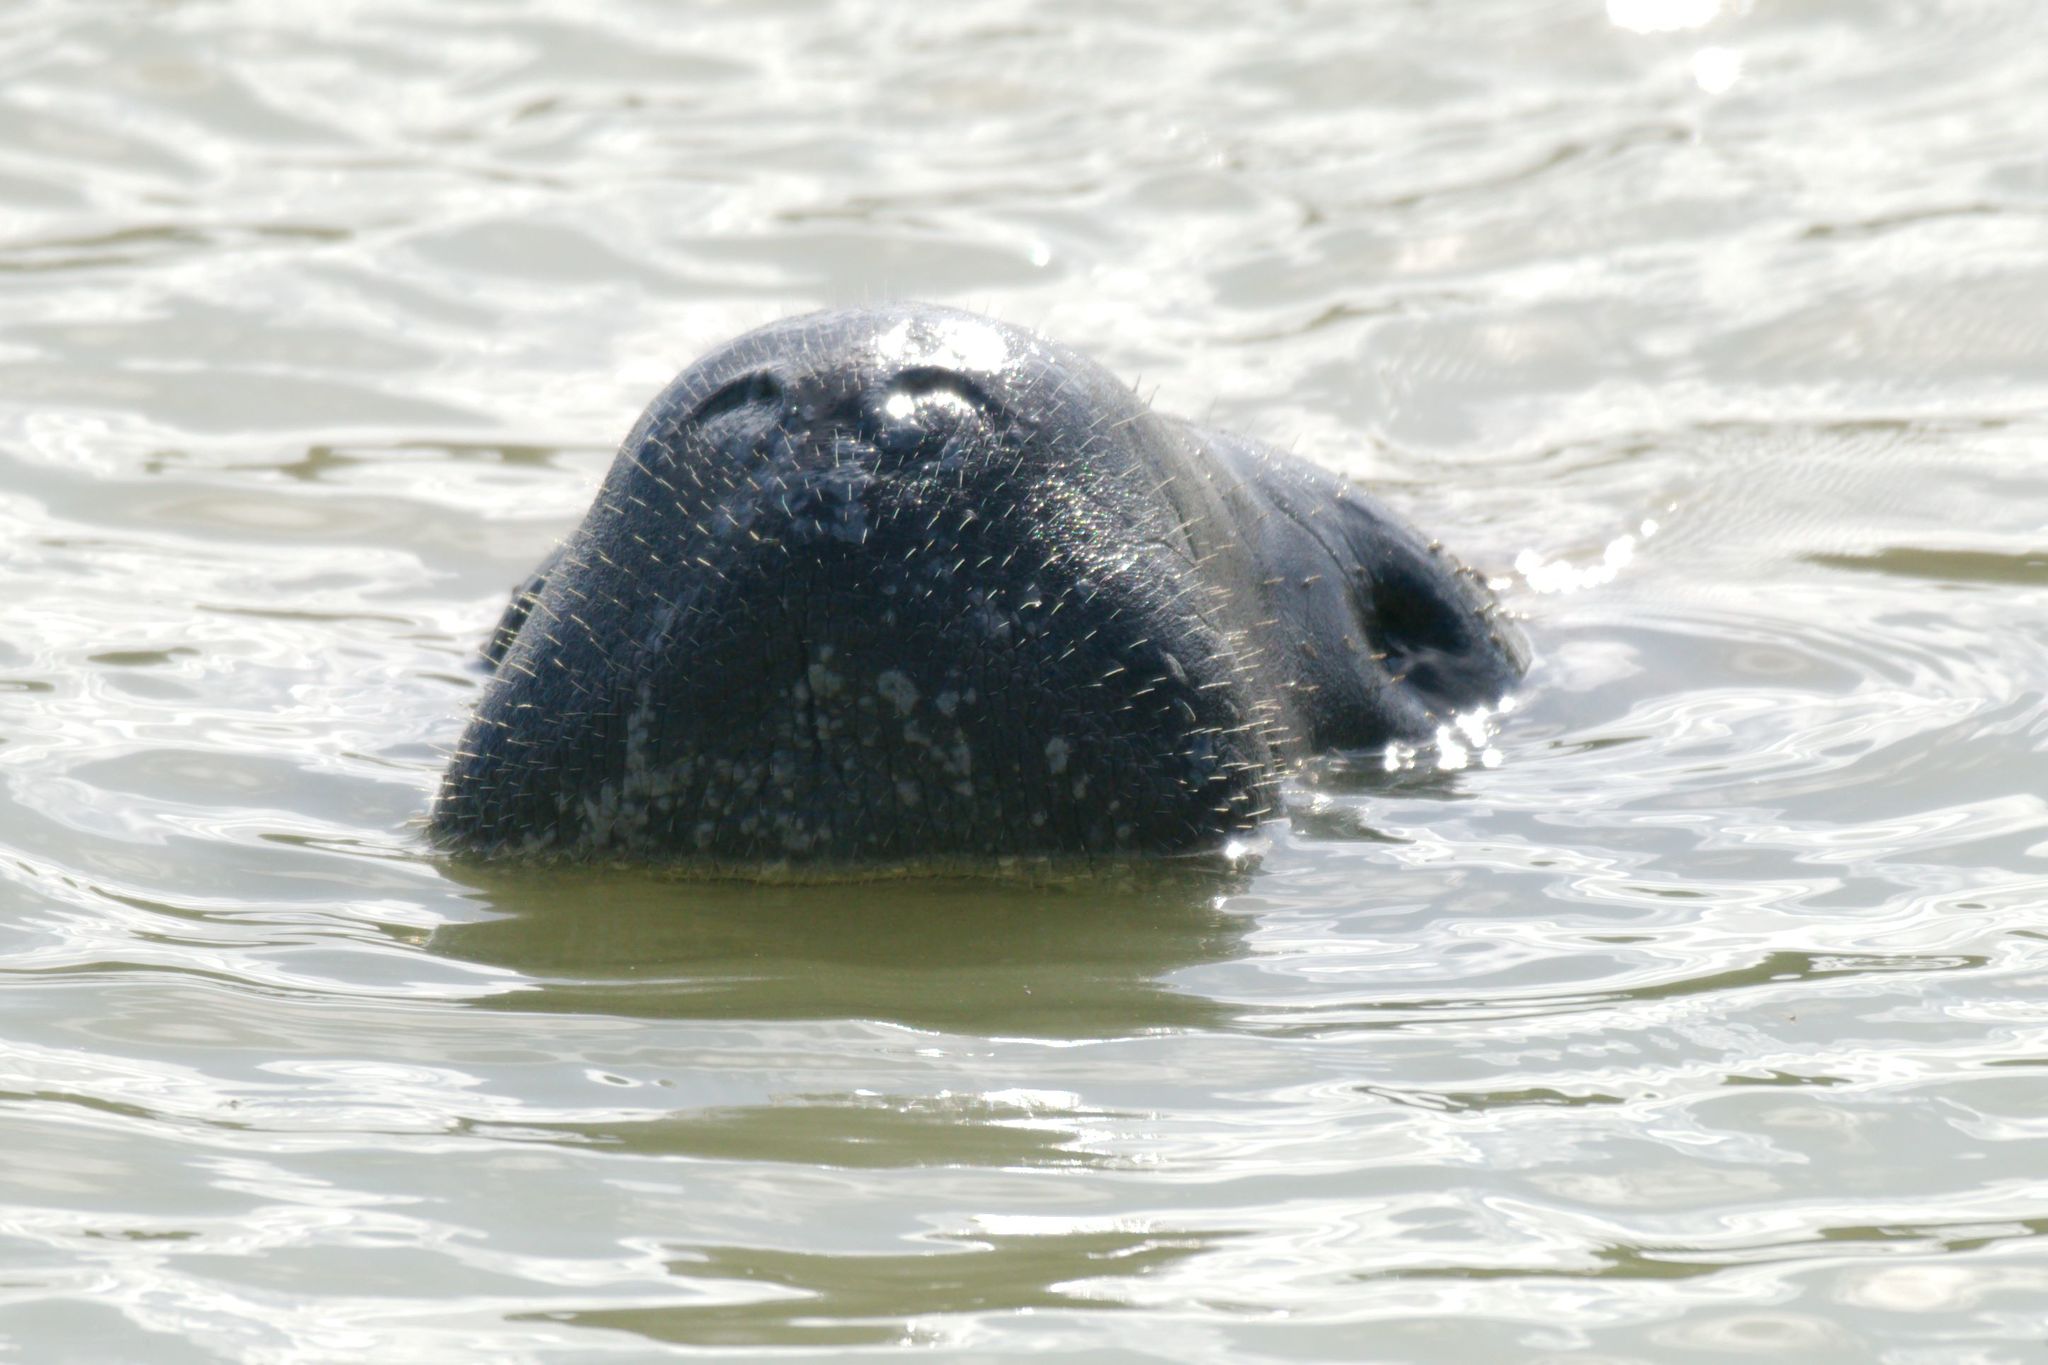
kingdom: Animalia
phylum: Chordata
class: Mammalia
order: Sirenia
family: Trichechidae
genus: Trichechus
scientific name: Trichechus manatus
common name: West indian manatee
